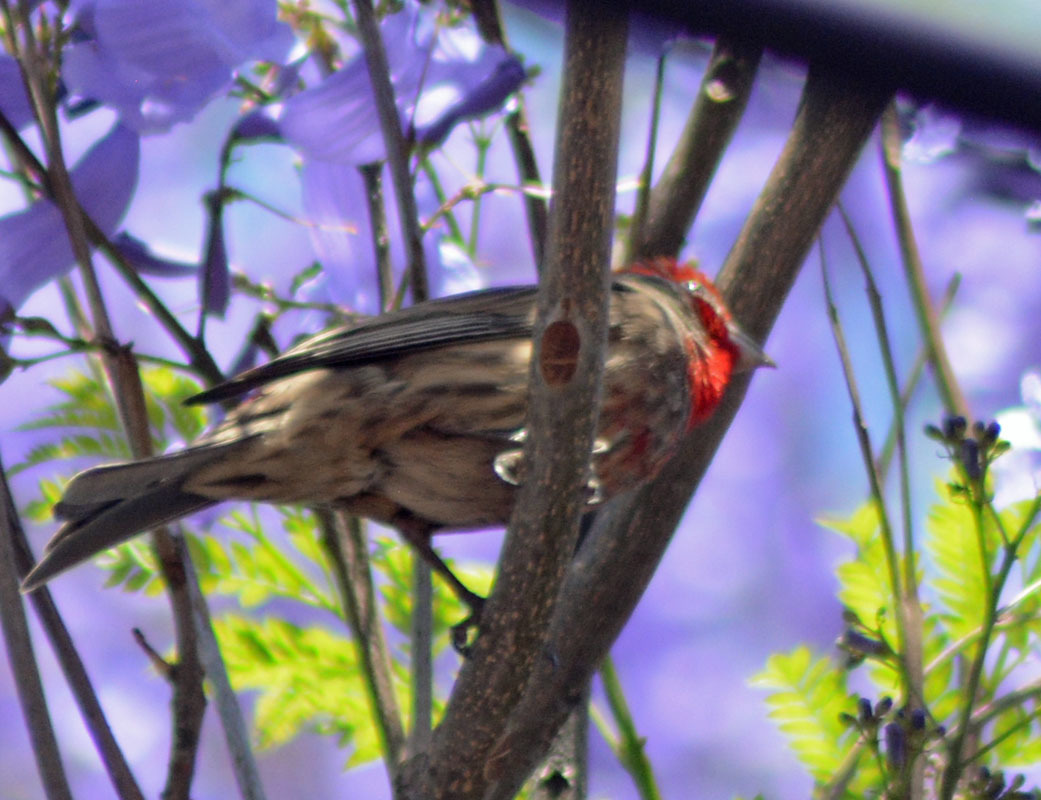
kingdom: Animalia
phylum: Chordata
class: Aves
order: Passeriformes
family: Fringillidae
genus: Haemorhous
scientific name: Haemorhous mexicanus
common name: House finch
